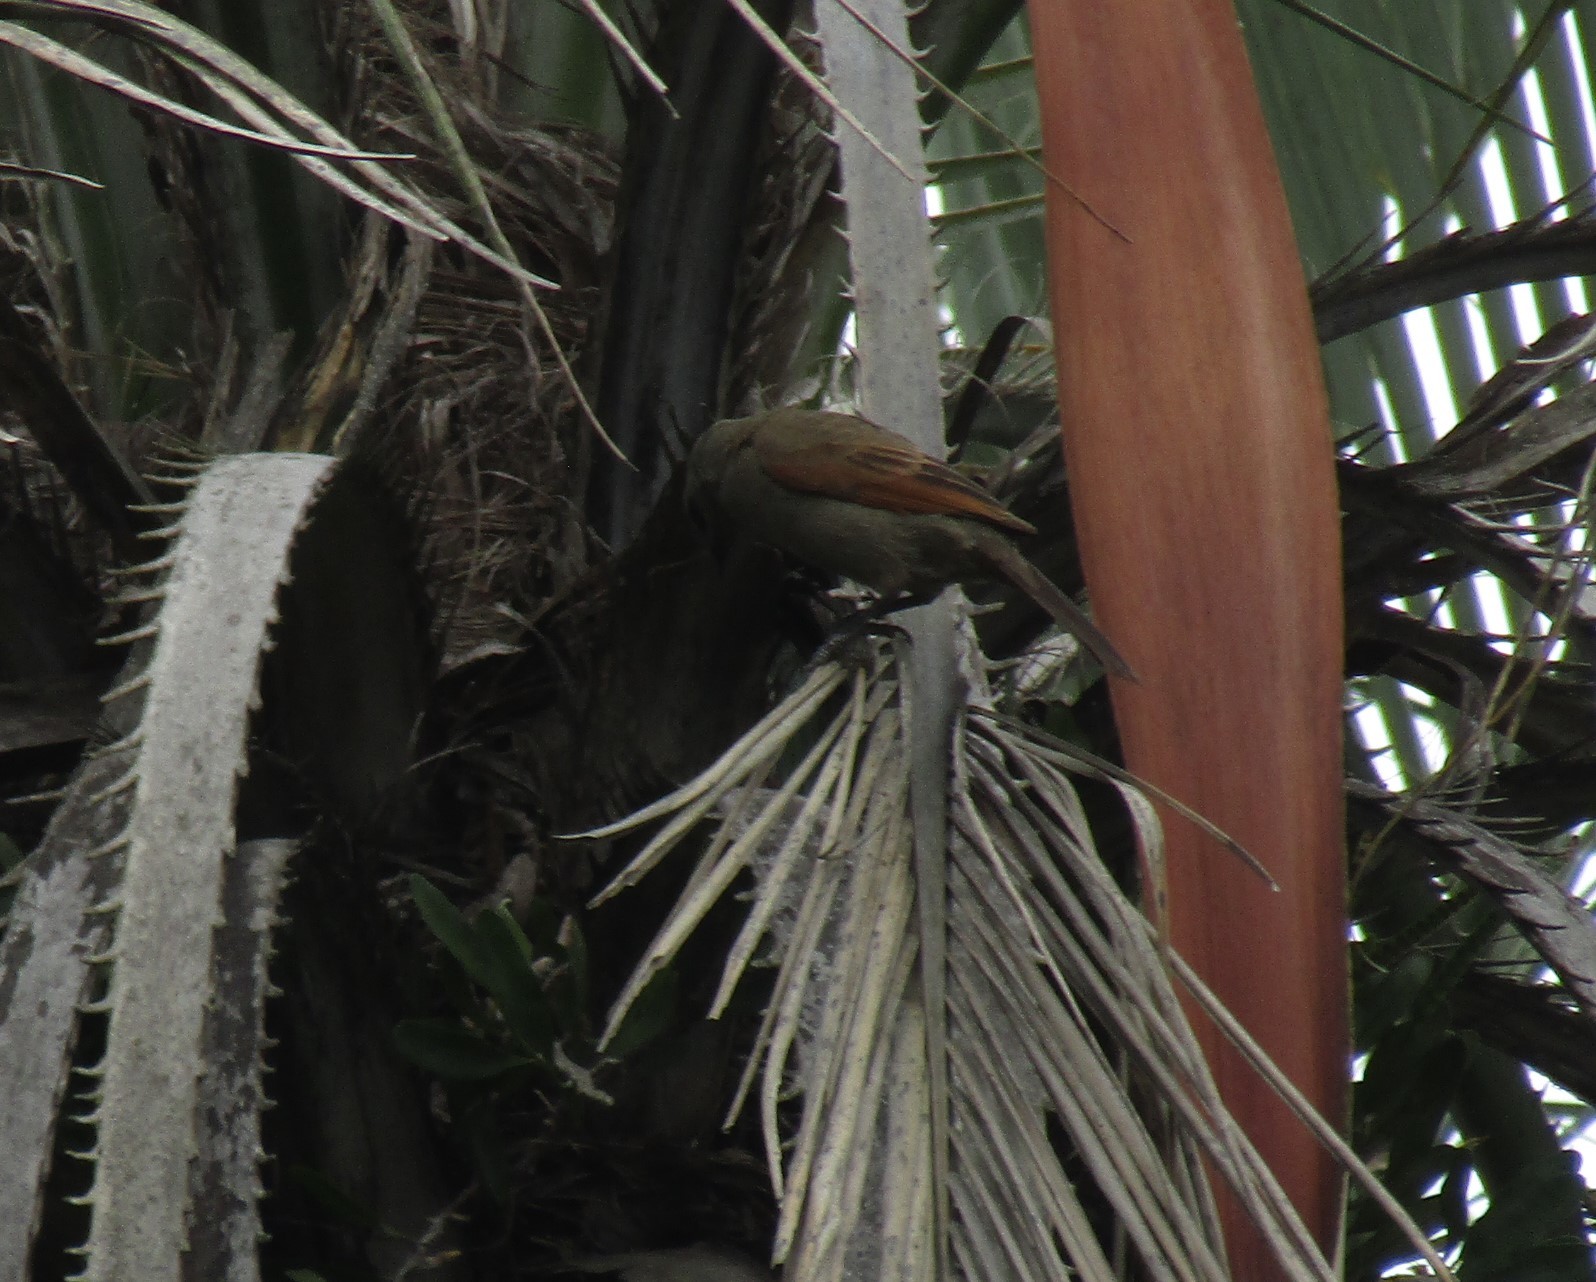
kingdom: Animalia
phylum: Chordata
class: Aves
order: Passeriformes
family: Icteridae
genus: Agelaioides
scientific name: Agelaioides badius
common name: Baywing
